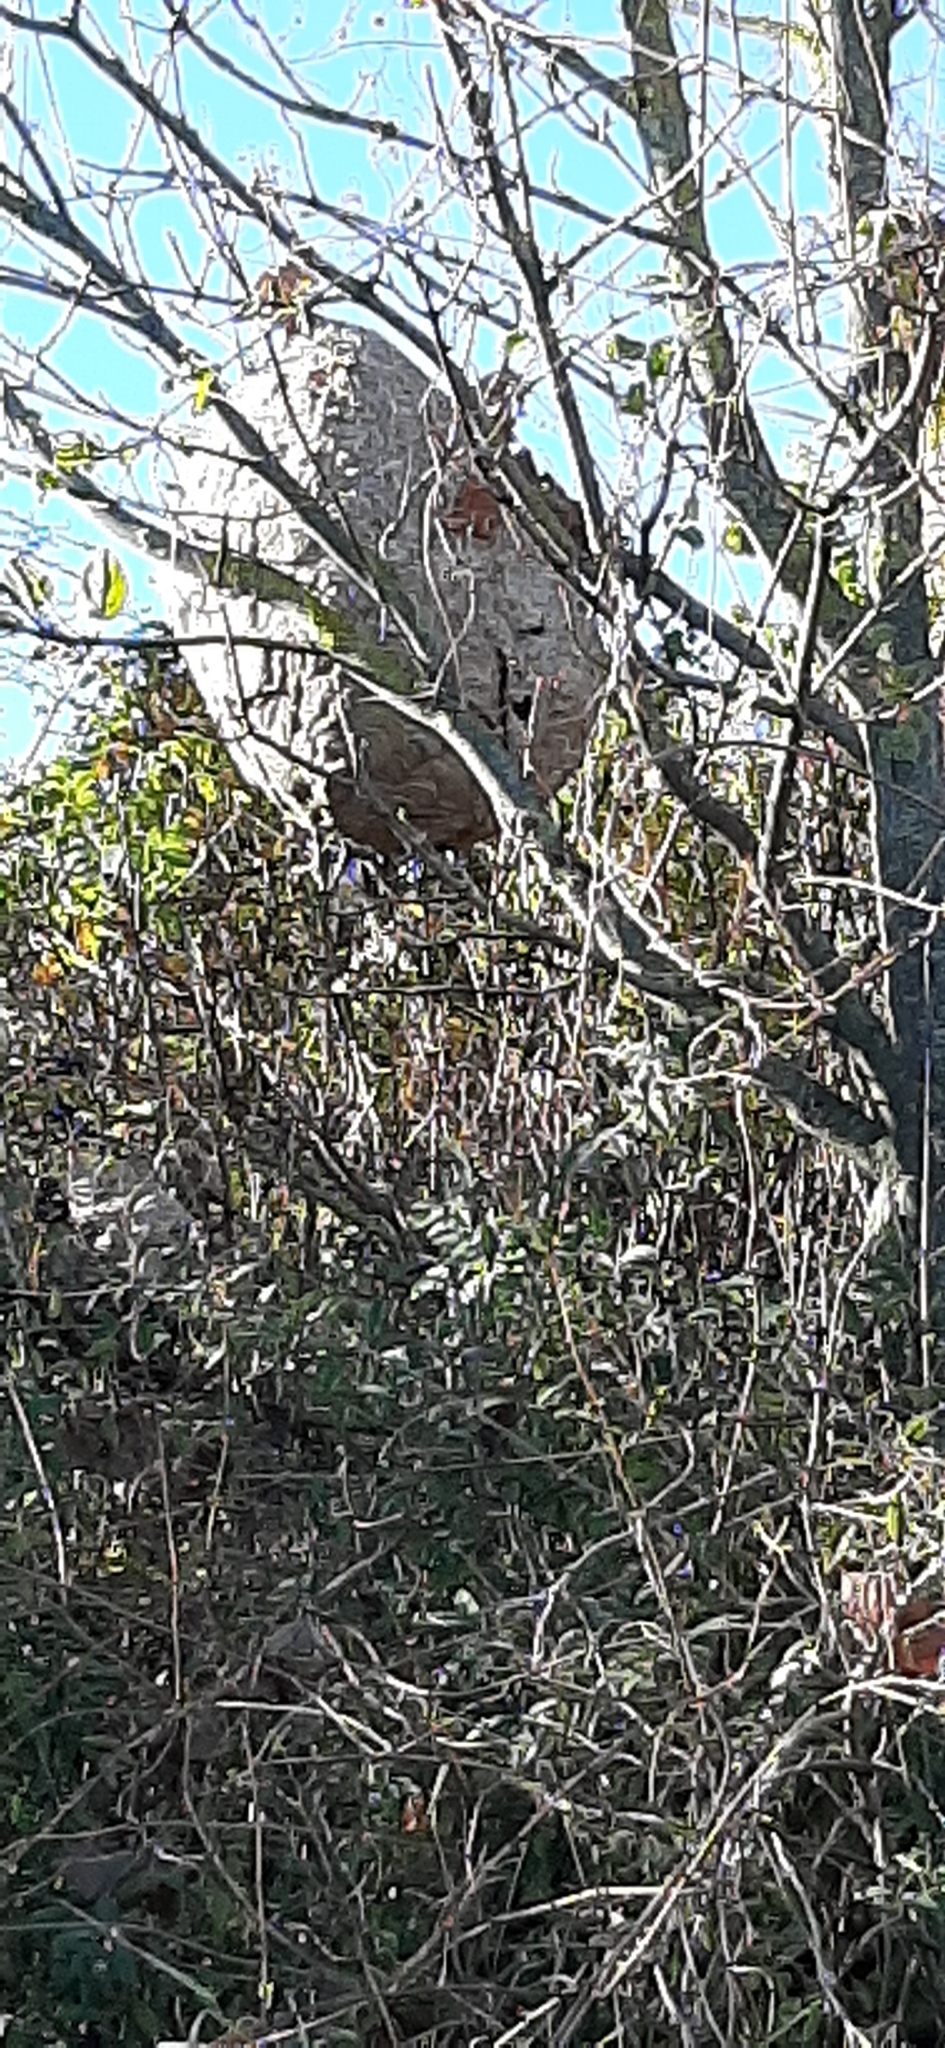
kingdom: Animalia
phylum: Arthropoda
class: Insecta
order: Hymenoptera
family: Vespidae
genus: Vespa
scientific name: Vespa velutina
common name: Asian hornet
